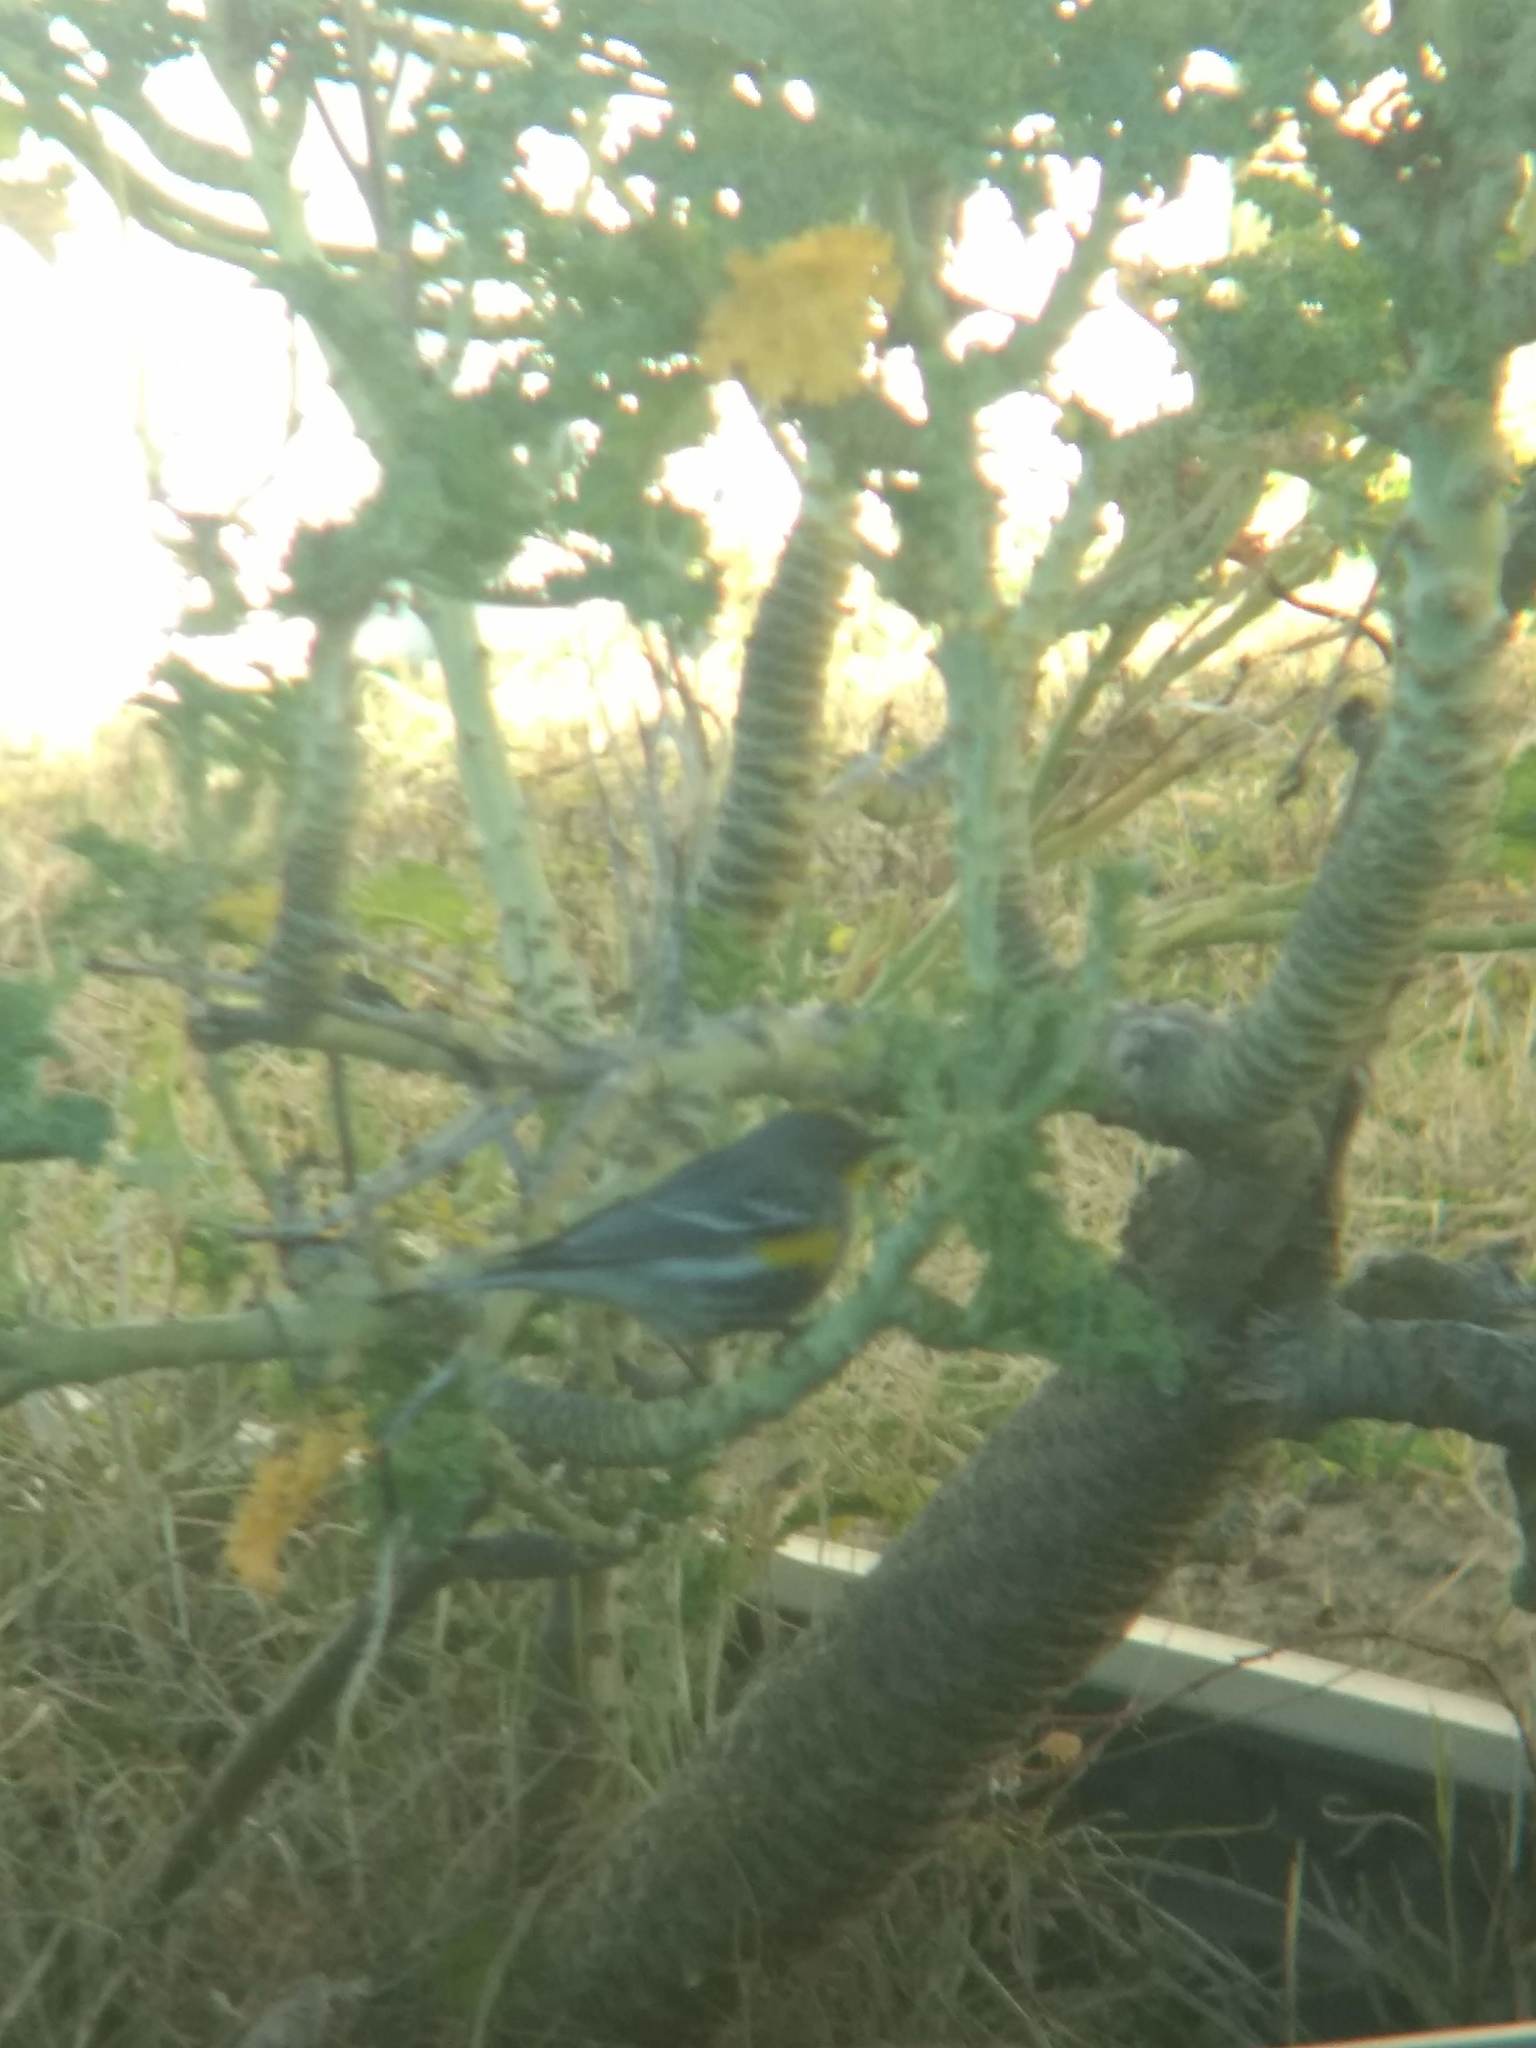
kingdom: Animalia
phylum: Chordata
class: Aves
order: Passeriformes
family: Parulidae
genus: Setophaga
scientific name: Setophaga coronata
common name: Myrtle warbler
